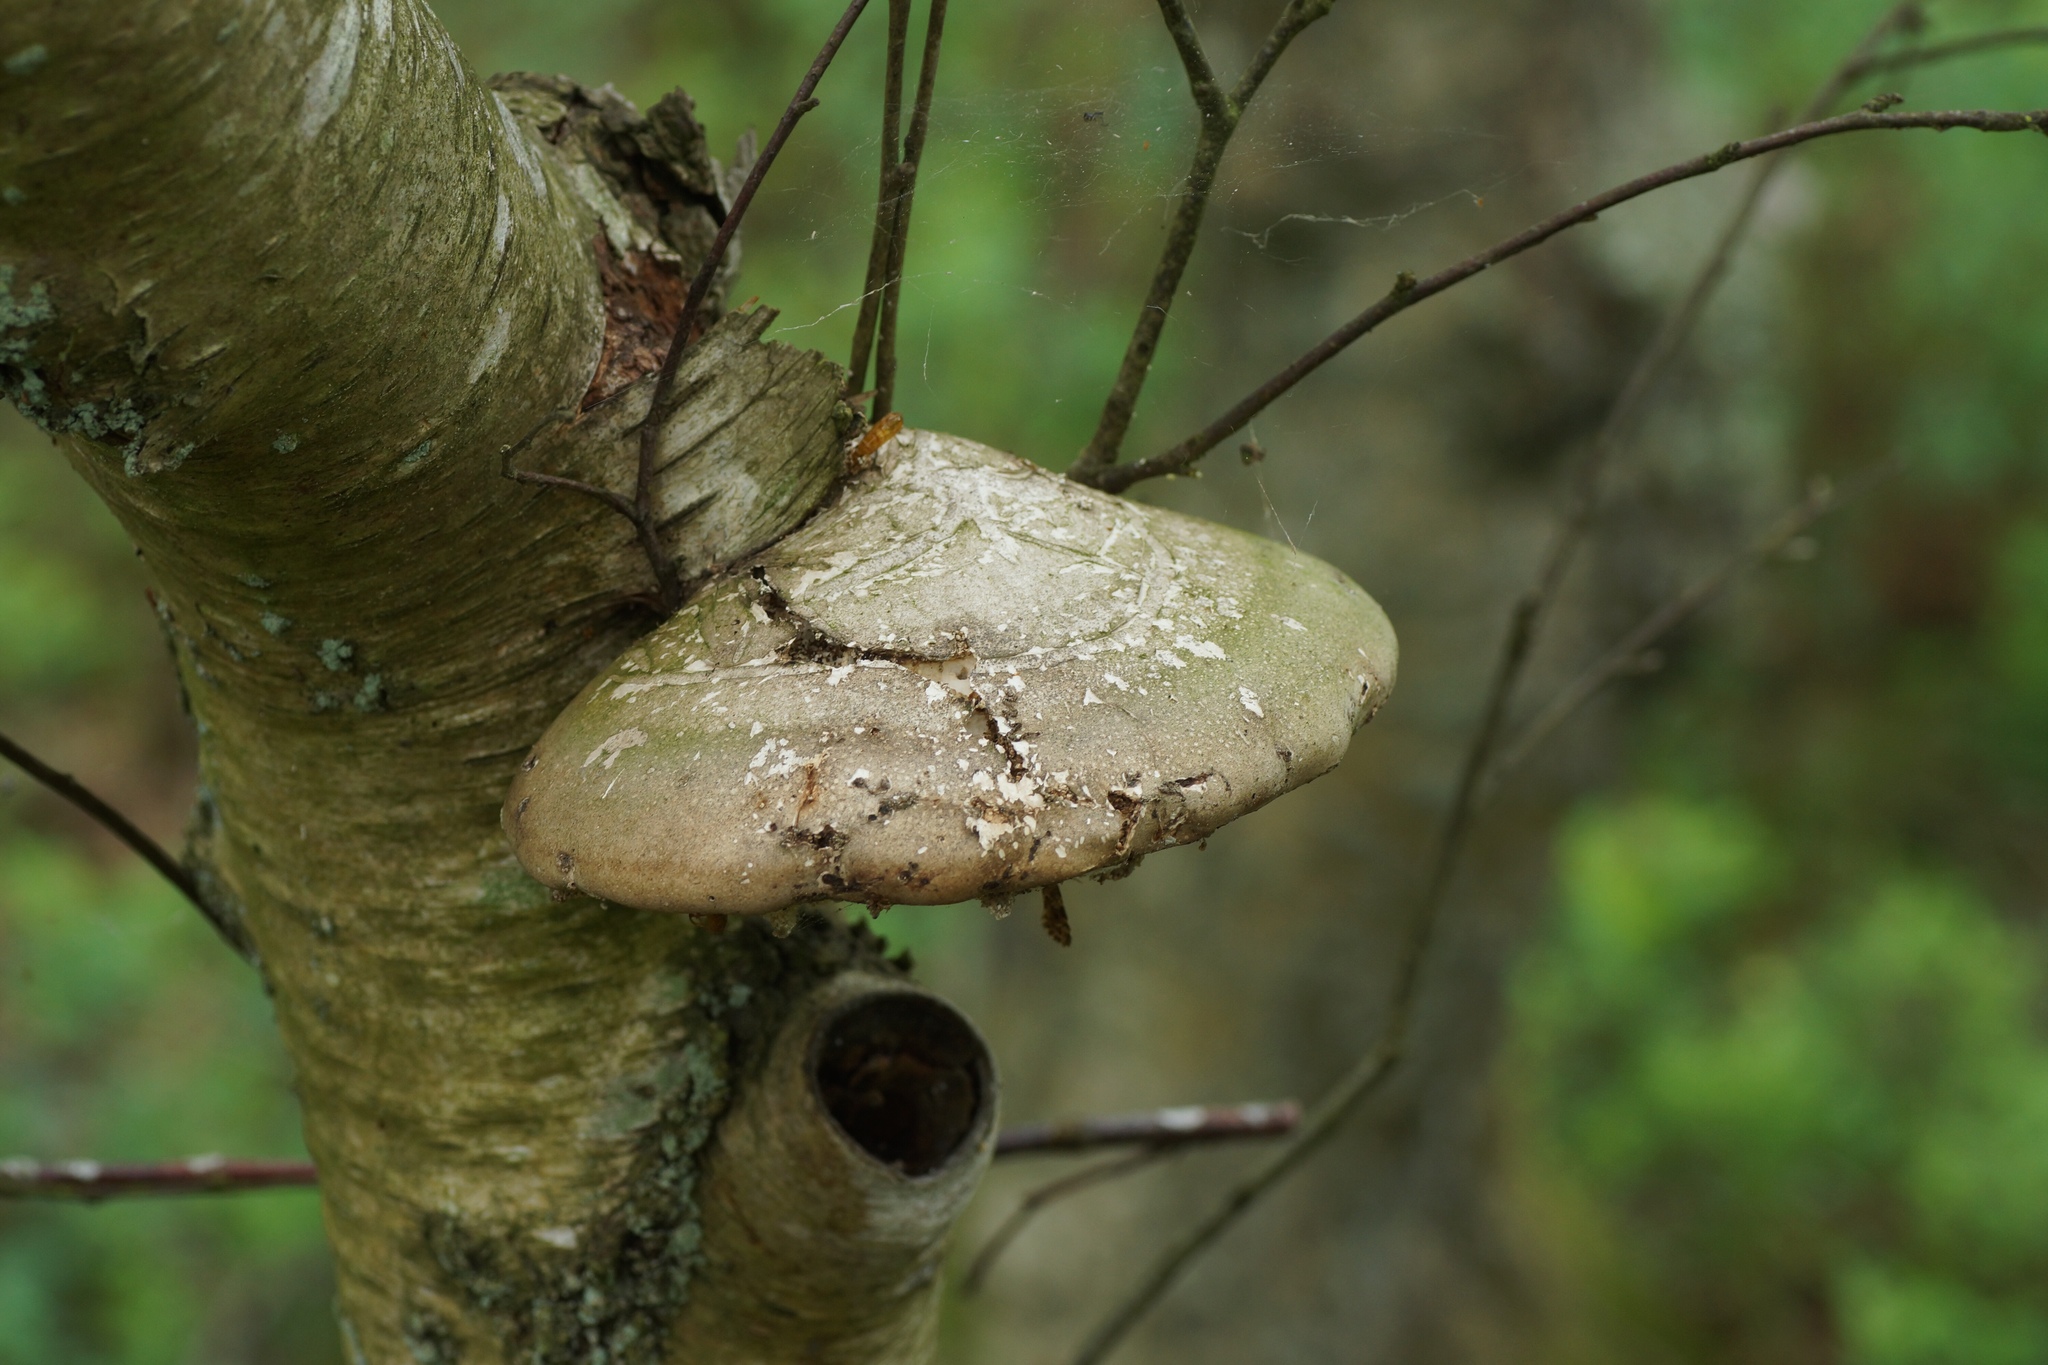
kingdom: Fungi
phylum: Basidiomycota
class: Agaricomycetes
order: Polyporales
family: Fomitopsidaceae
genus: Fomitopsis
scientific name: Fomitopsis betulina
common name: Birch polypore
